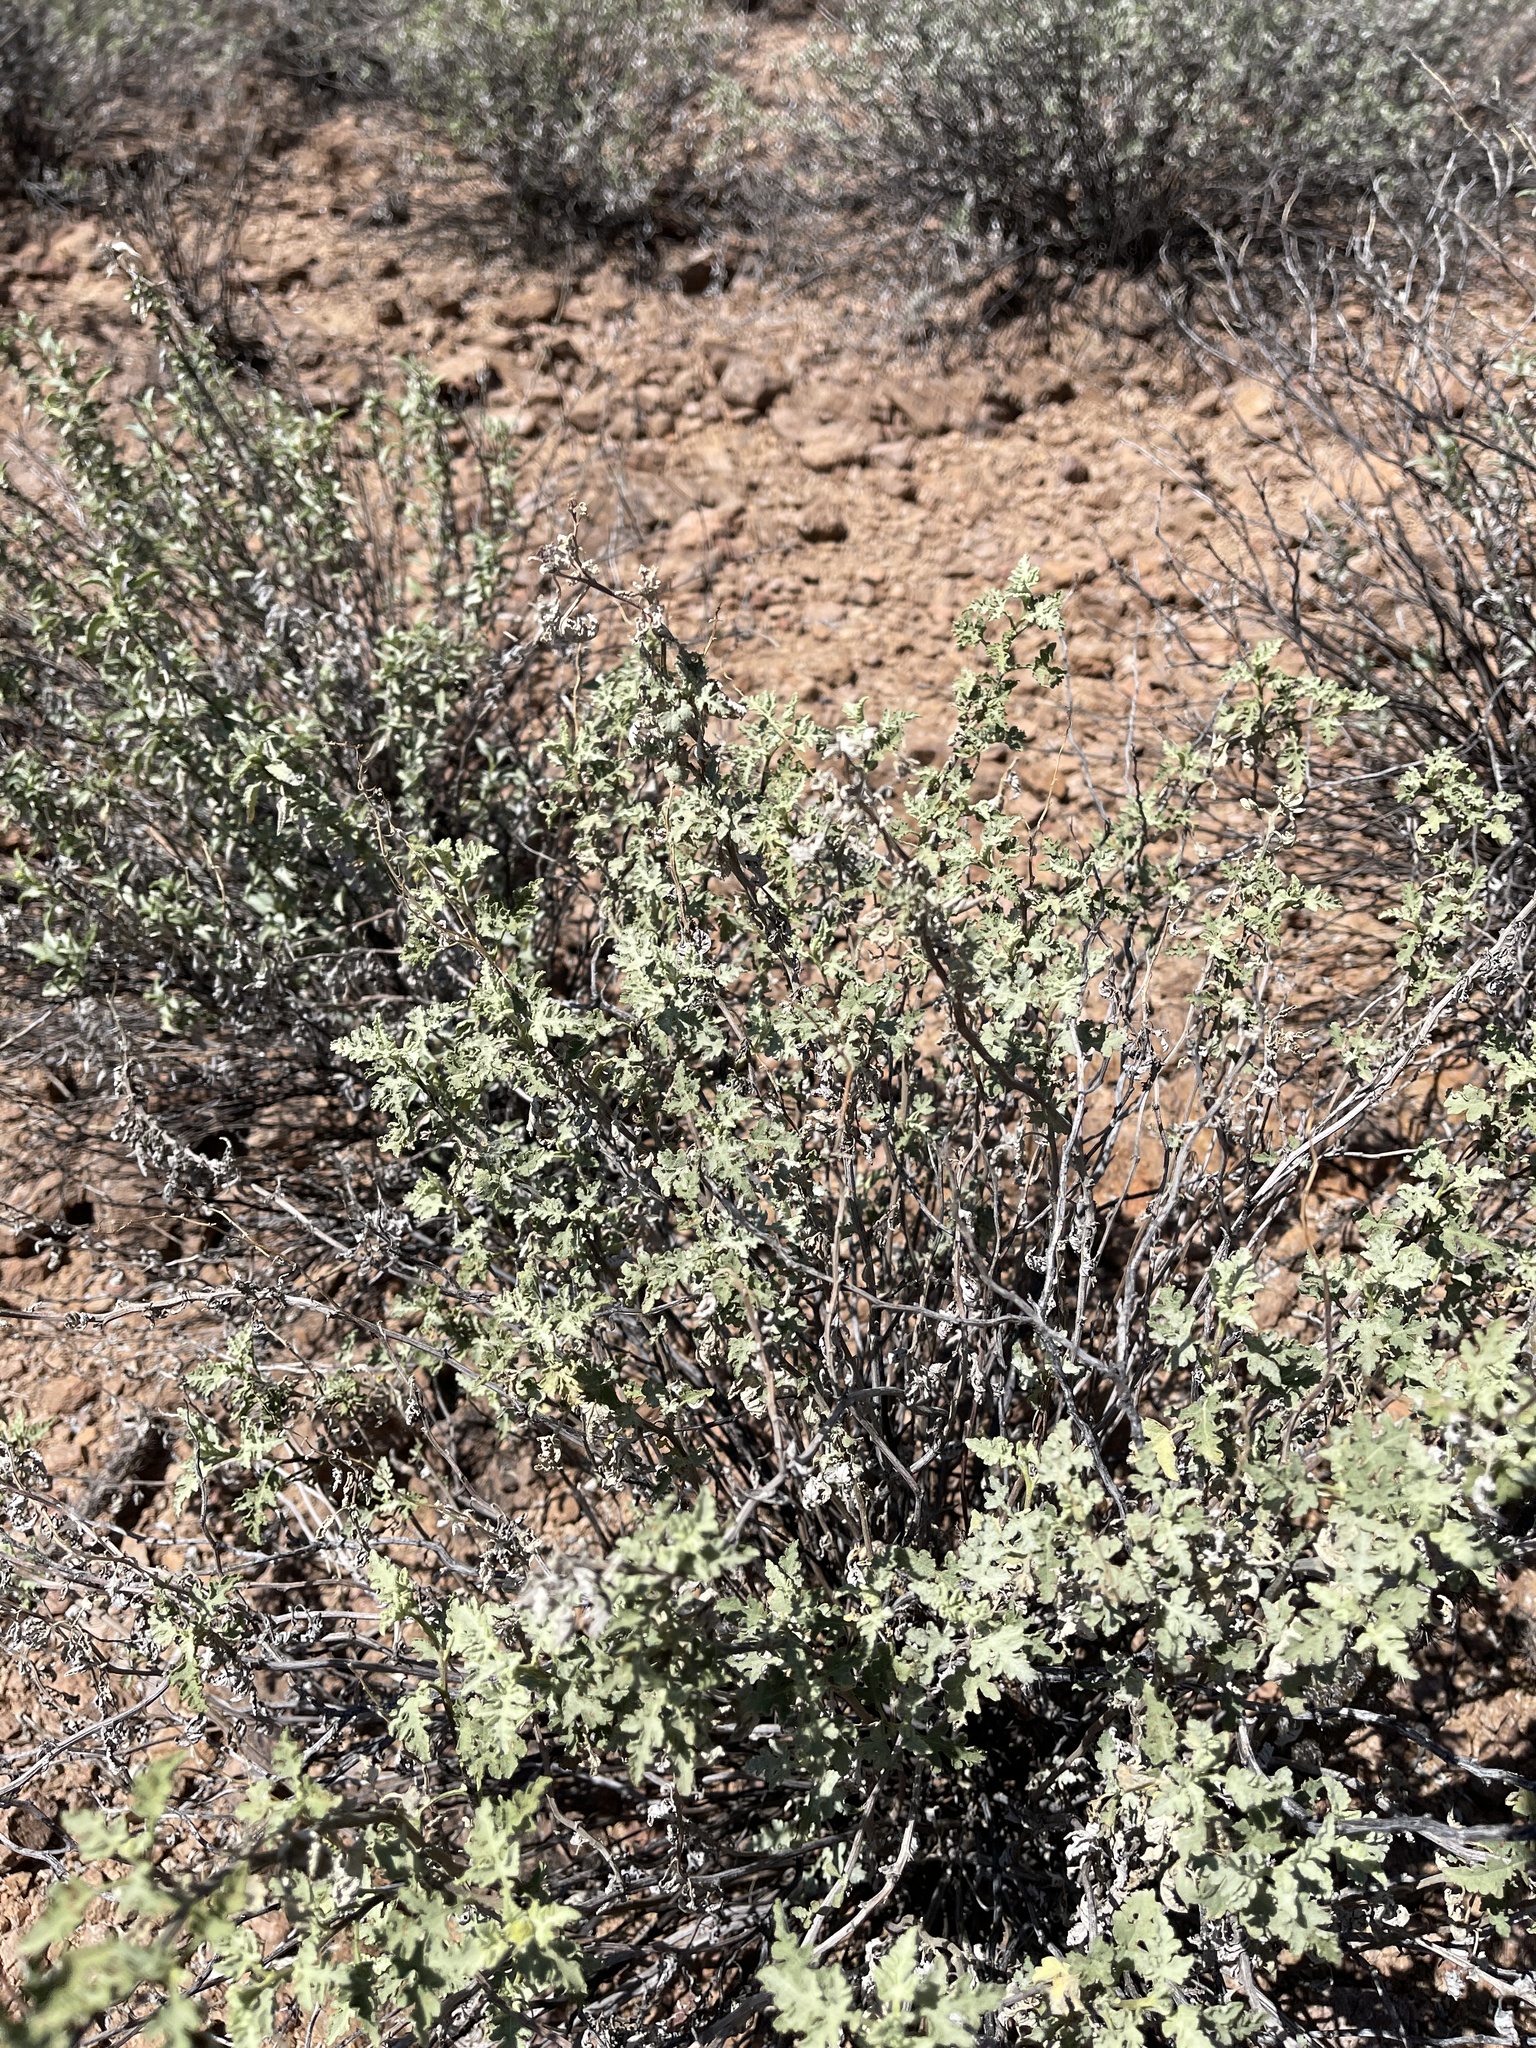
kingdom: Plantae
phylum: Tracheophyta
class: Magnoliopsida
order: Asterales
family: Asteraceae
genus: Ambrosia
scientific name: Ambrosia acanthicarpa
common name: Hooker's bur ragweed
